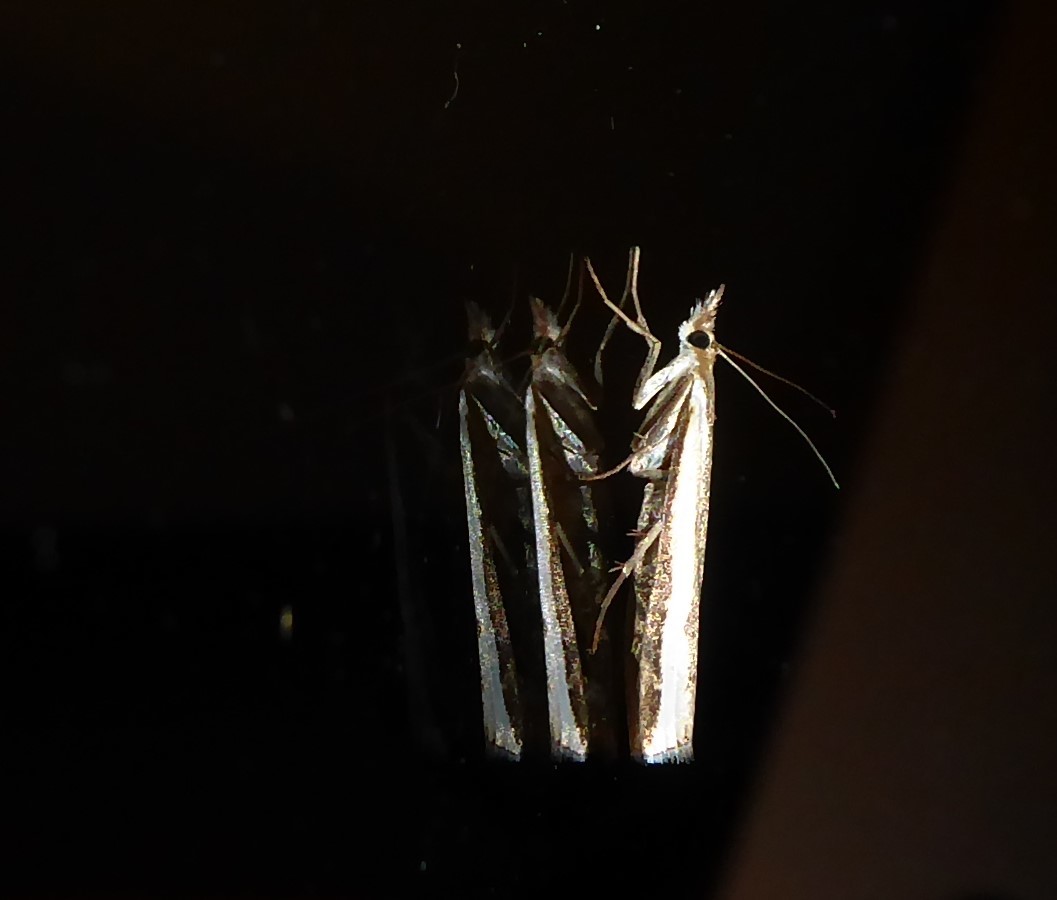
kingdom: Animalia
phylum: Arthropoda
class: Insecta
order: Lepidoptera
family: Crambidae
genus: Orocrambus
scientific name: Orocrambus flexuosellus
